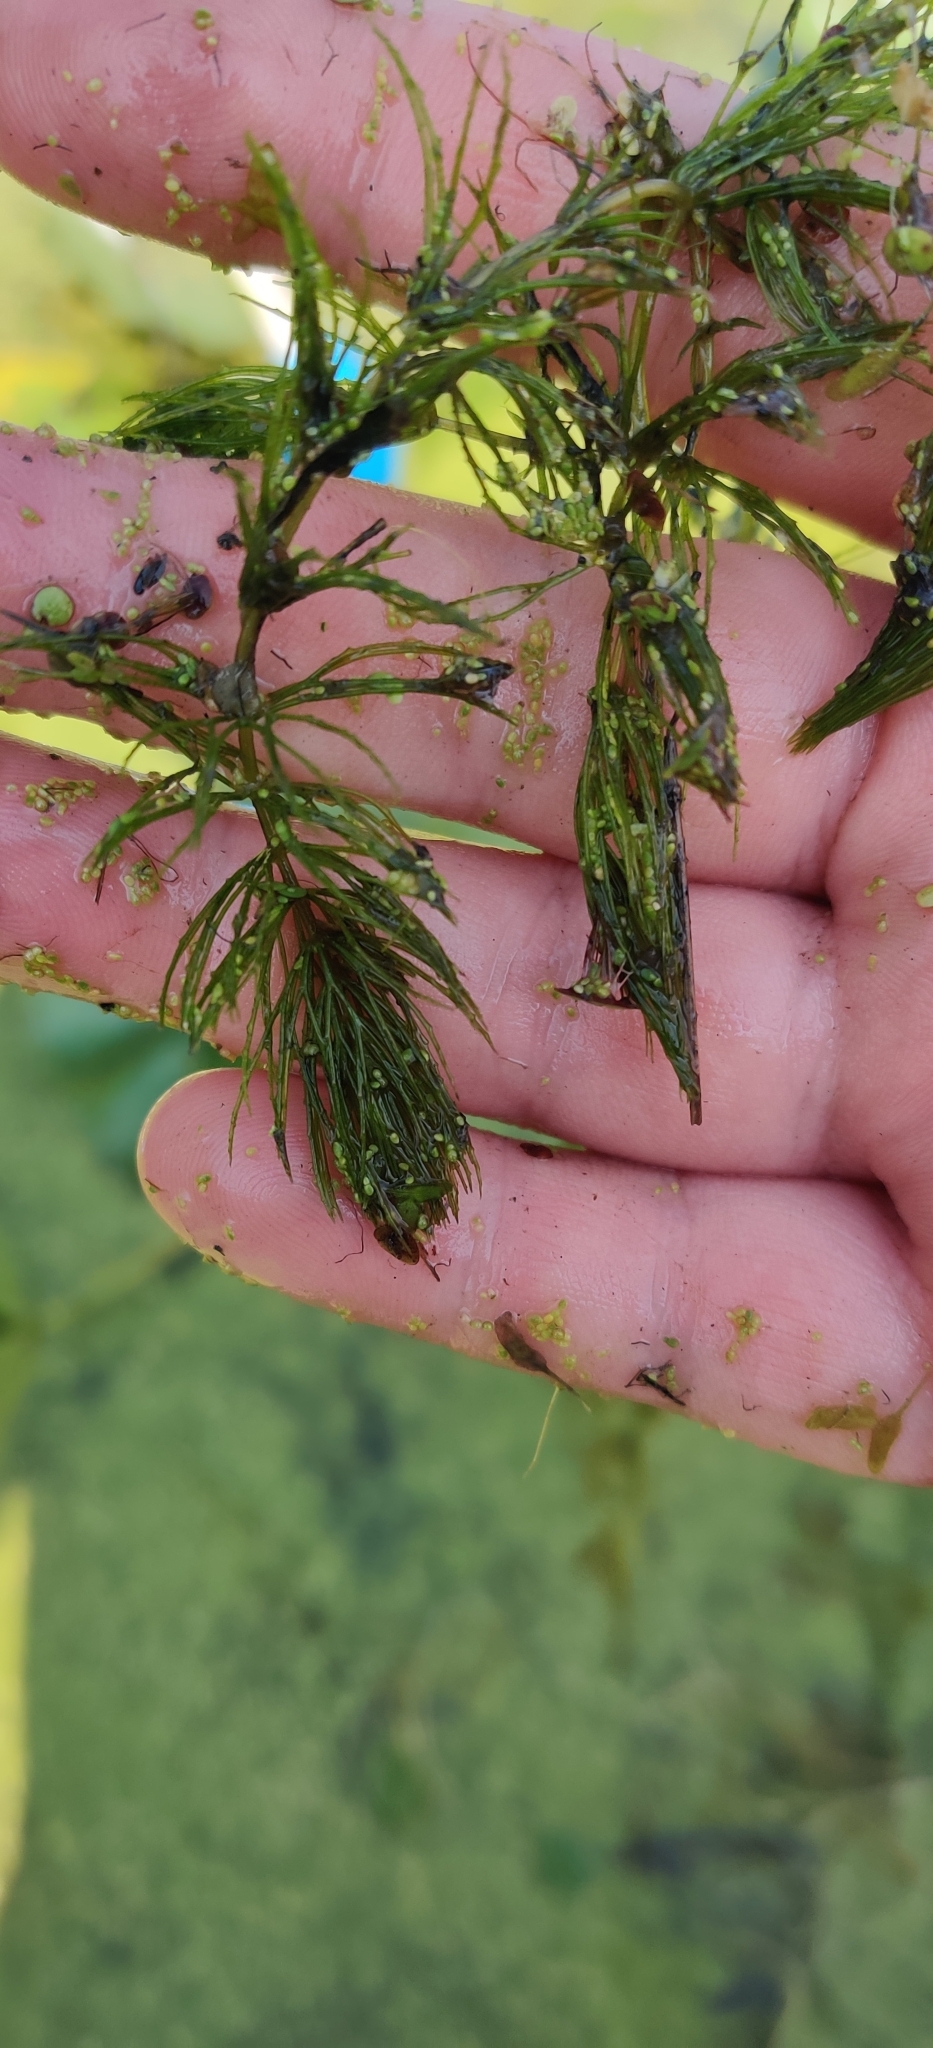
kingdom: Plantae
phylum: Tracheophyta
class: Magnoliopsida
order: Ceratophyllales
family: Ceratophyllaceae
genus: Ceratophyllum
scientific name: Ceratophyllum demersum
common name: Rigid hornwort
